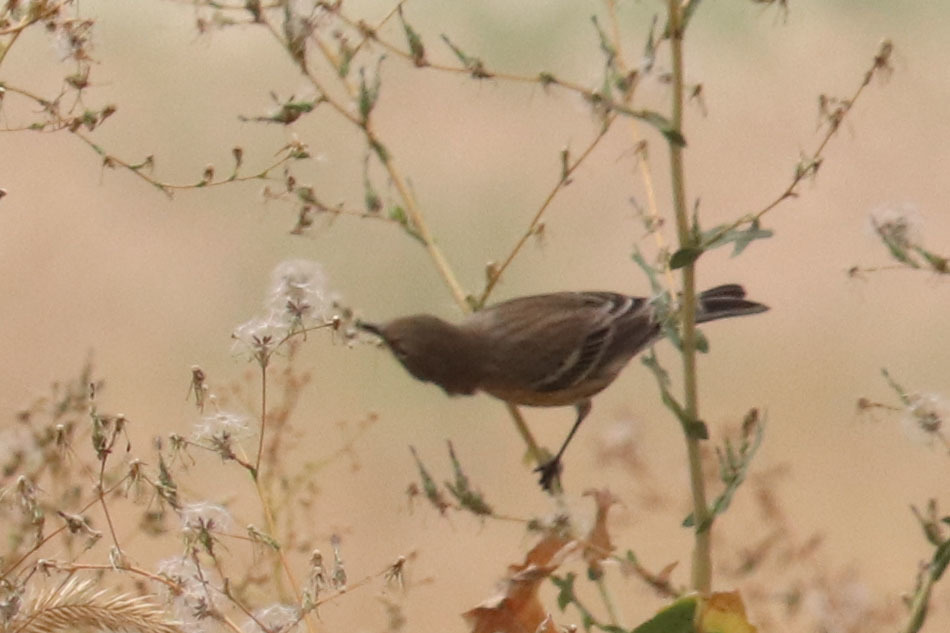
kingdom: Animalia
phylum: Chordata
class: Aves
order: Passeriformes
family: Parulidae
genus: Setophaga
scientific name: Setophaga coronata
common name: Myrtle warbler
